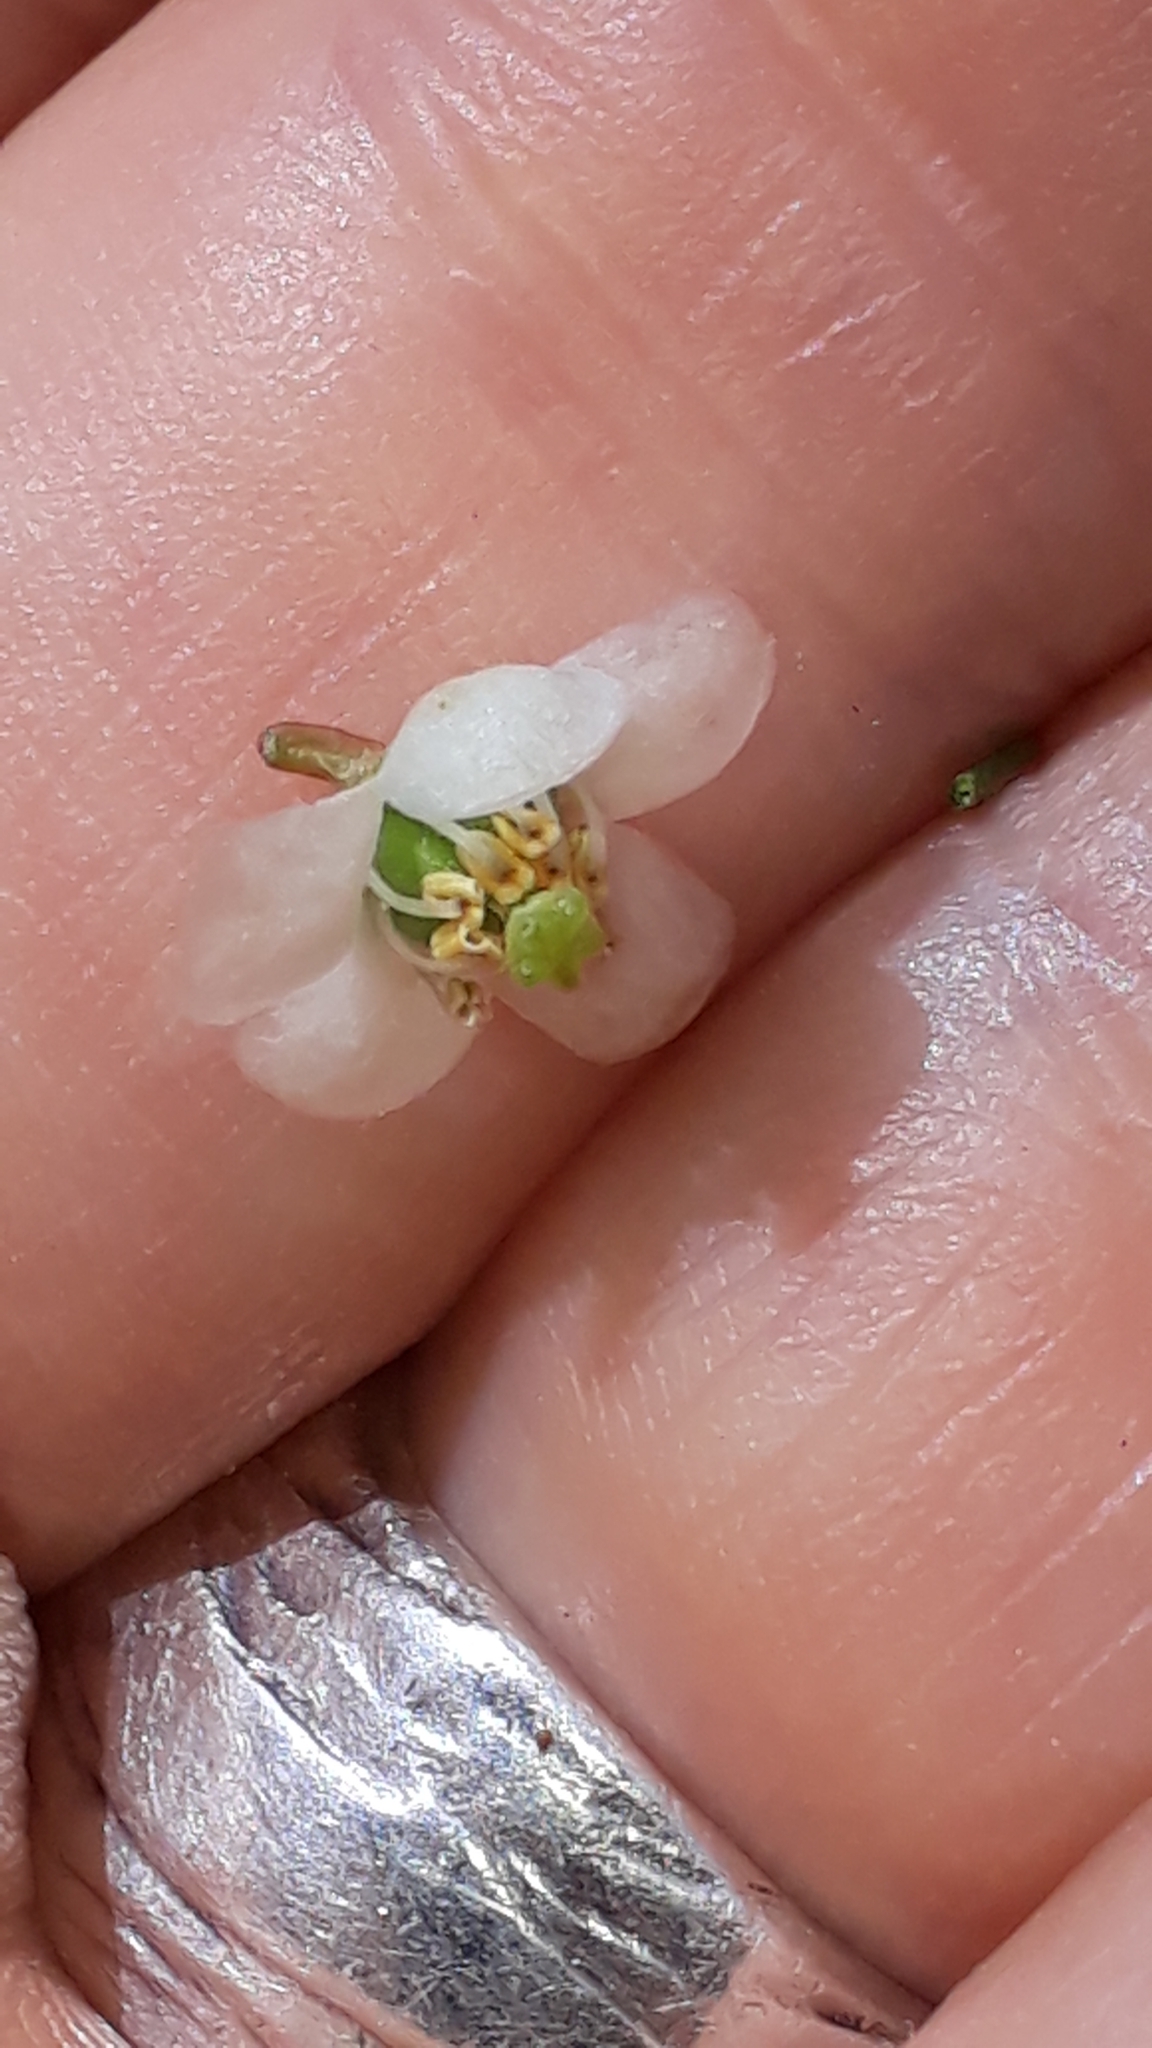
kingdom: Plantae
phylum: Tracheophyta
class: Magnoliopsida
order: Ericales
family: Ericaceae
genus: Pyrola
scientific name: Pyrola minor
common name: Common wintergreen
